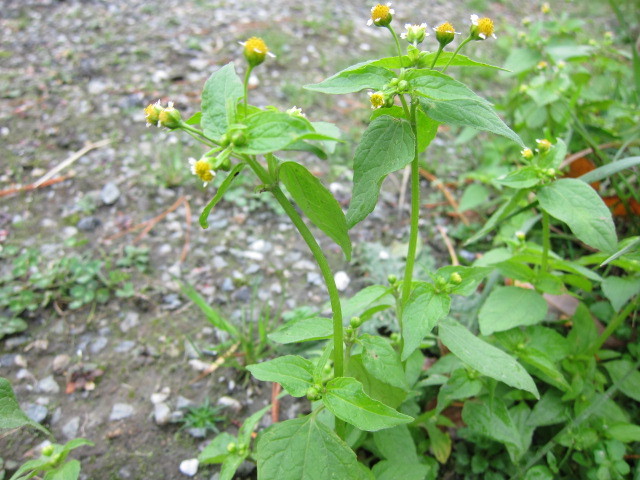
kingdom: Plantae
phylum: Tracheophyta
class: Magnoliopsida
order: Asterales
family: Asteraceae
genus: Galinsoga
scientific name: Galinsoga parviflora
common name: Gallant soldier
